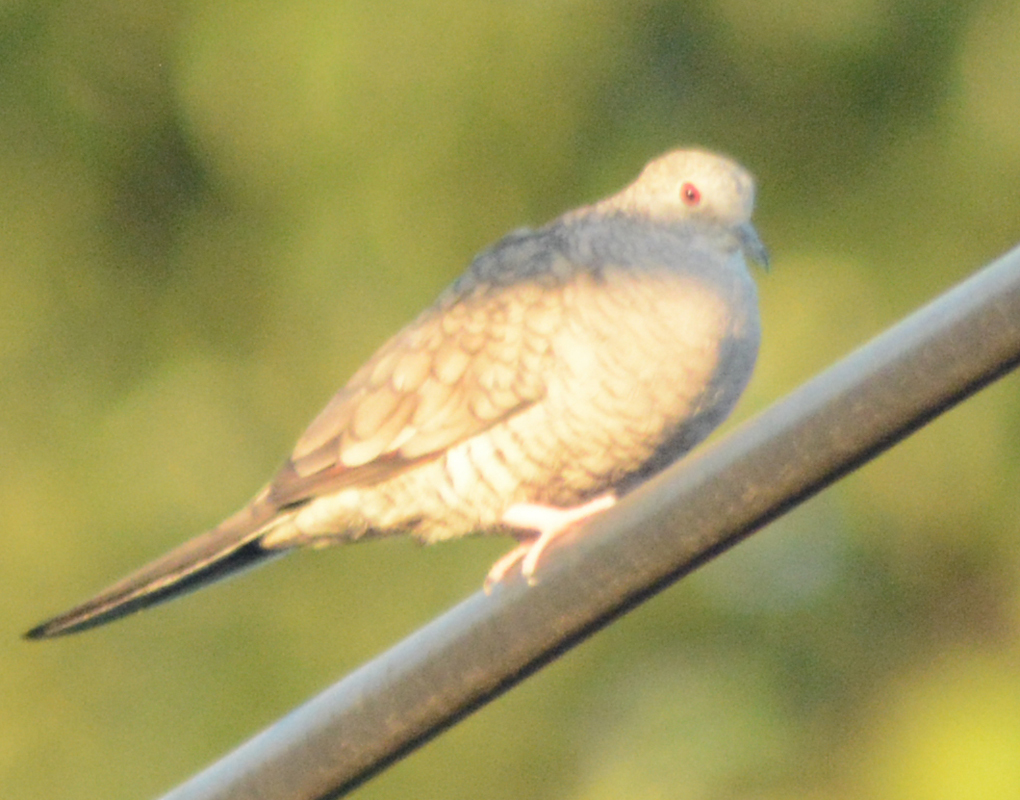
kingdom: Animalia
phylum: Chordata
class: Aves
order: Columbiformes
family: Columbidae
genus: Columbina
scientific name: Columbina inca
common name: Inca dove
